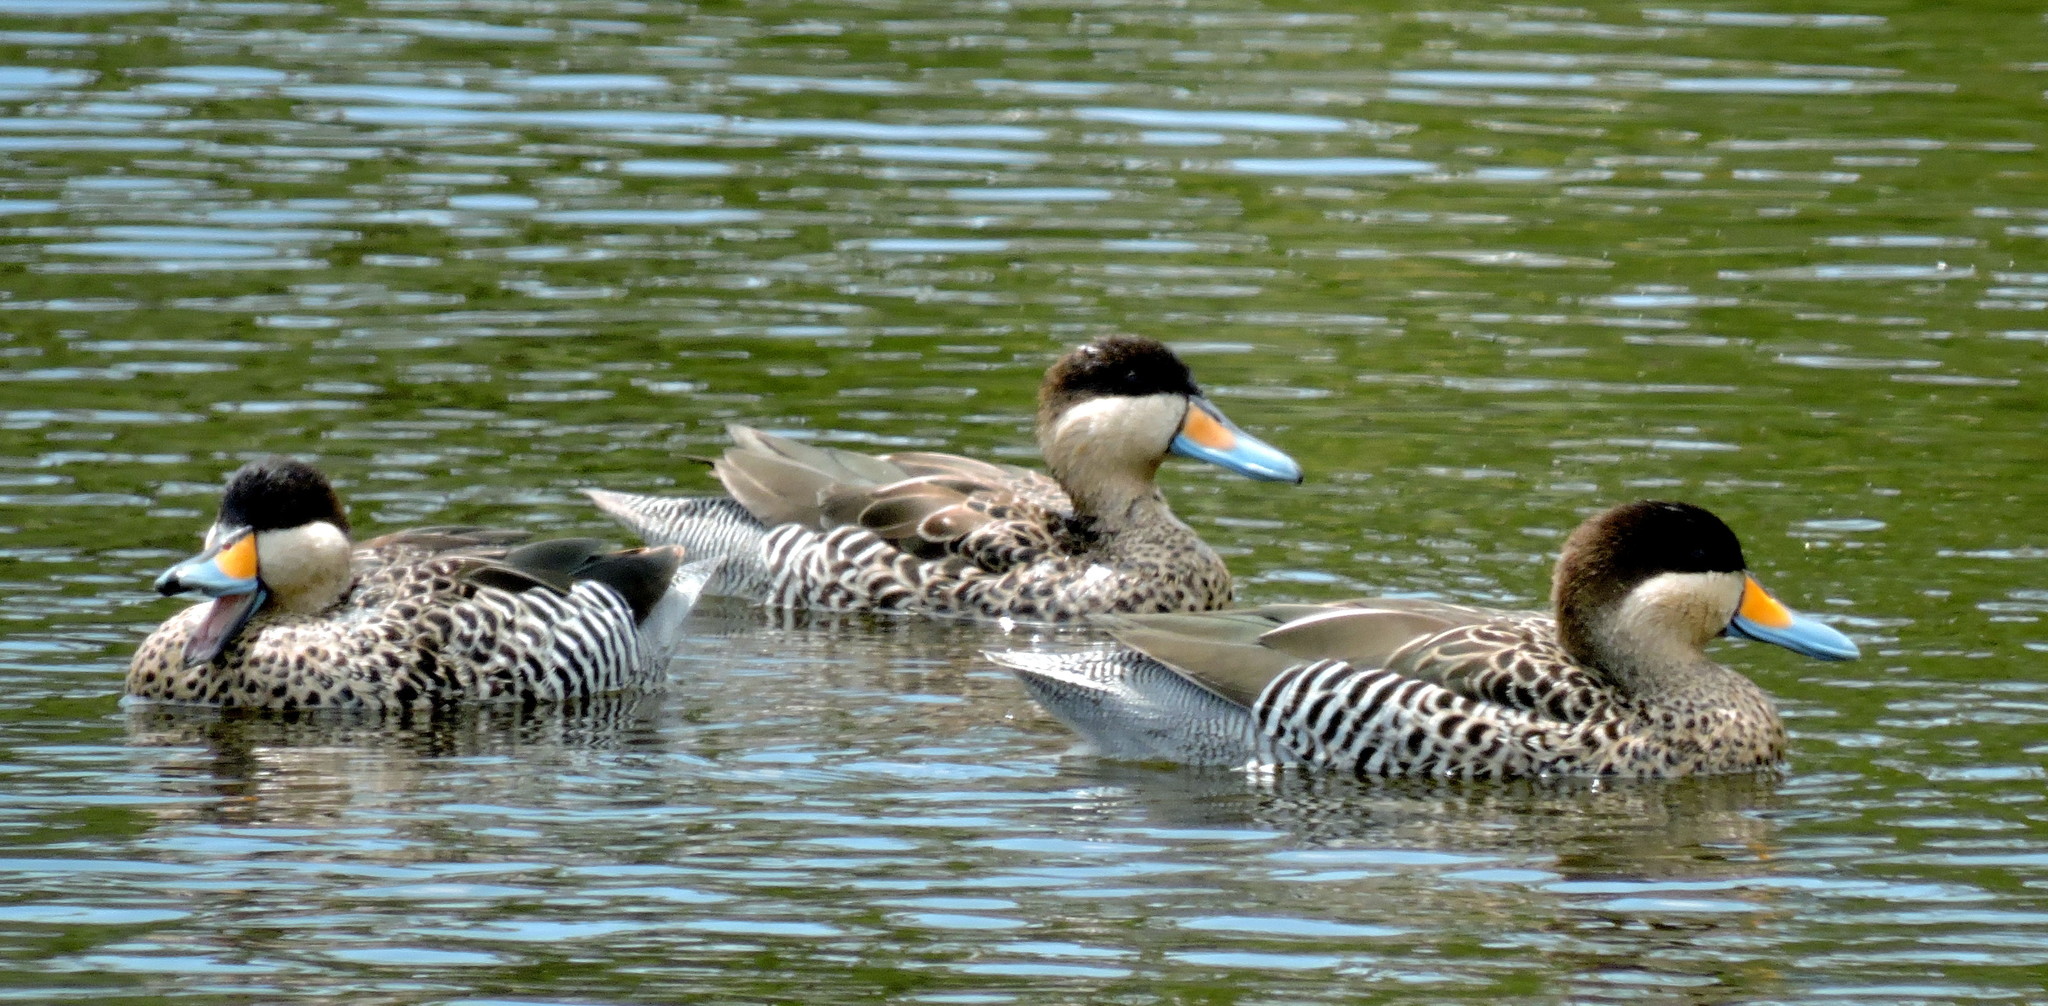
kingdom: Animalia
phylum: Chordata
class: Aves
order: Anseriformes
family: Anatidae
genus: Spatula
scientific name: Spatula versicolor
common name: Silver teal
